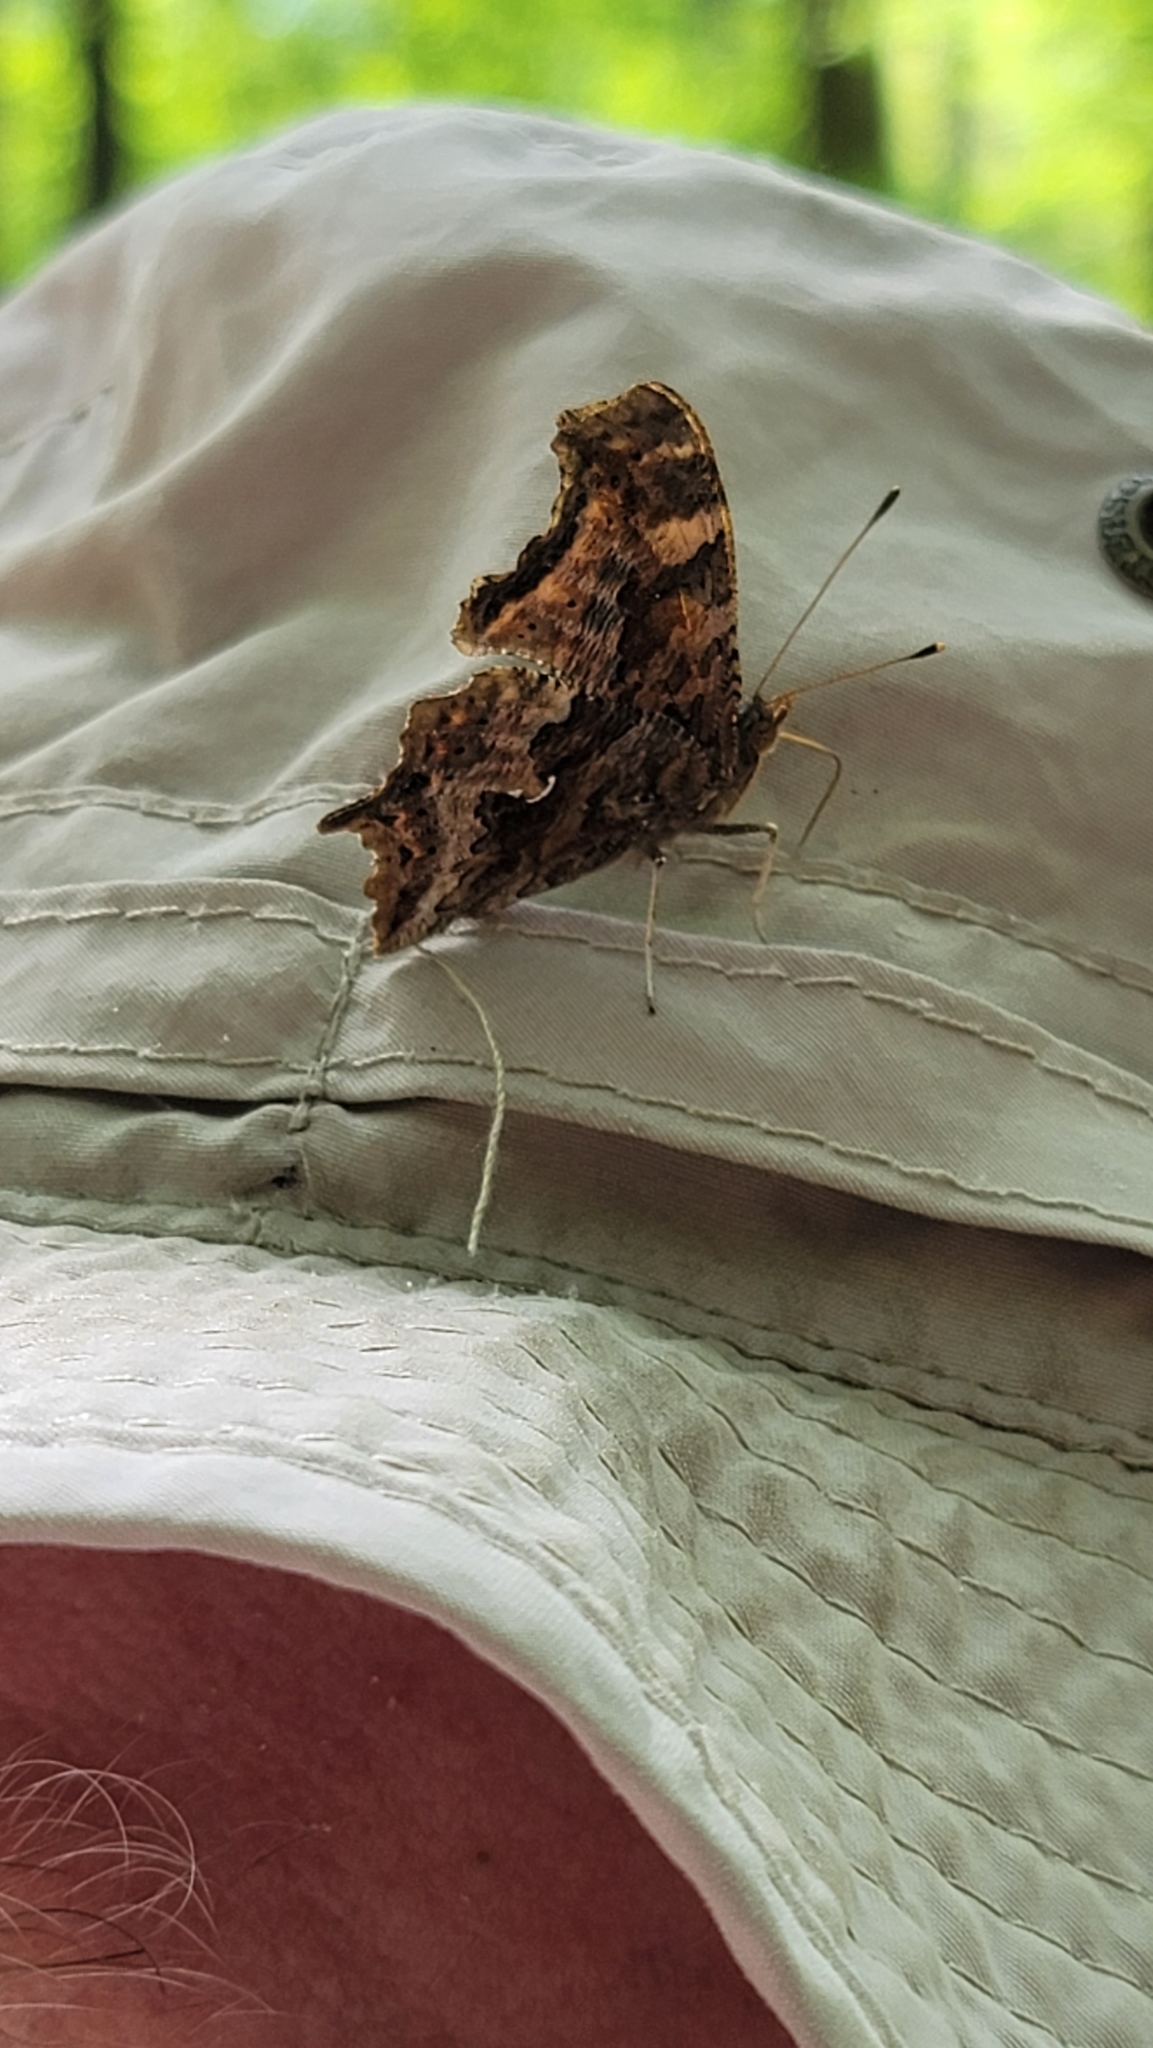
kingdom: Animalia
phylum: Arthropoda
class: Insecta
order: Lepidoptera
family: Nymphalidae
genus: Polygonia
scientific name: Polygonia interrogationis
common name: Question mark
